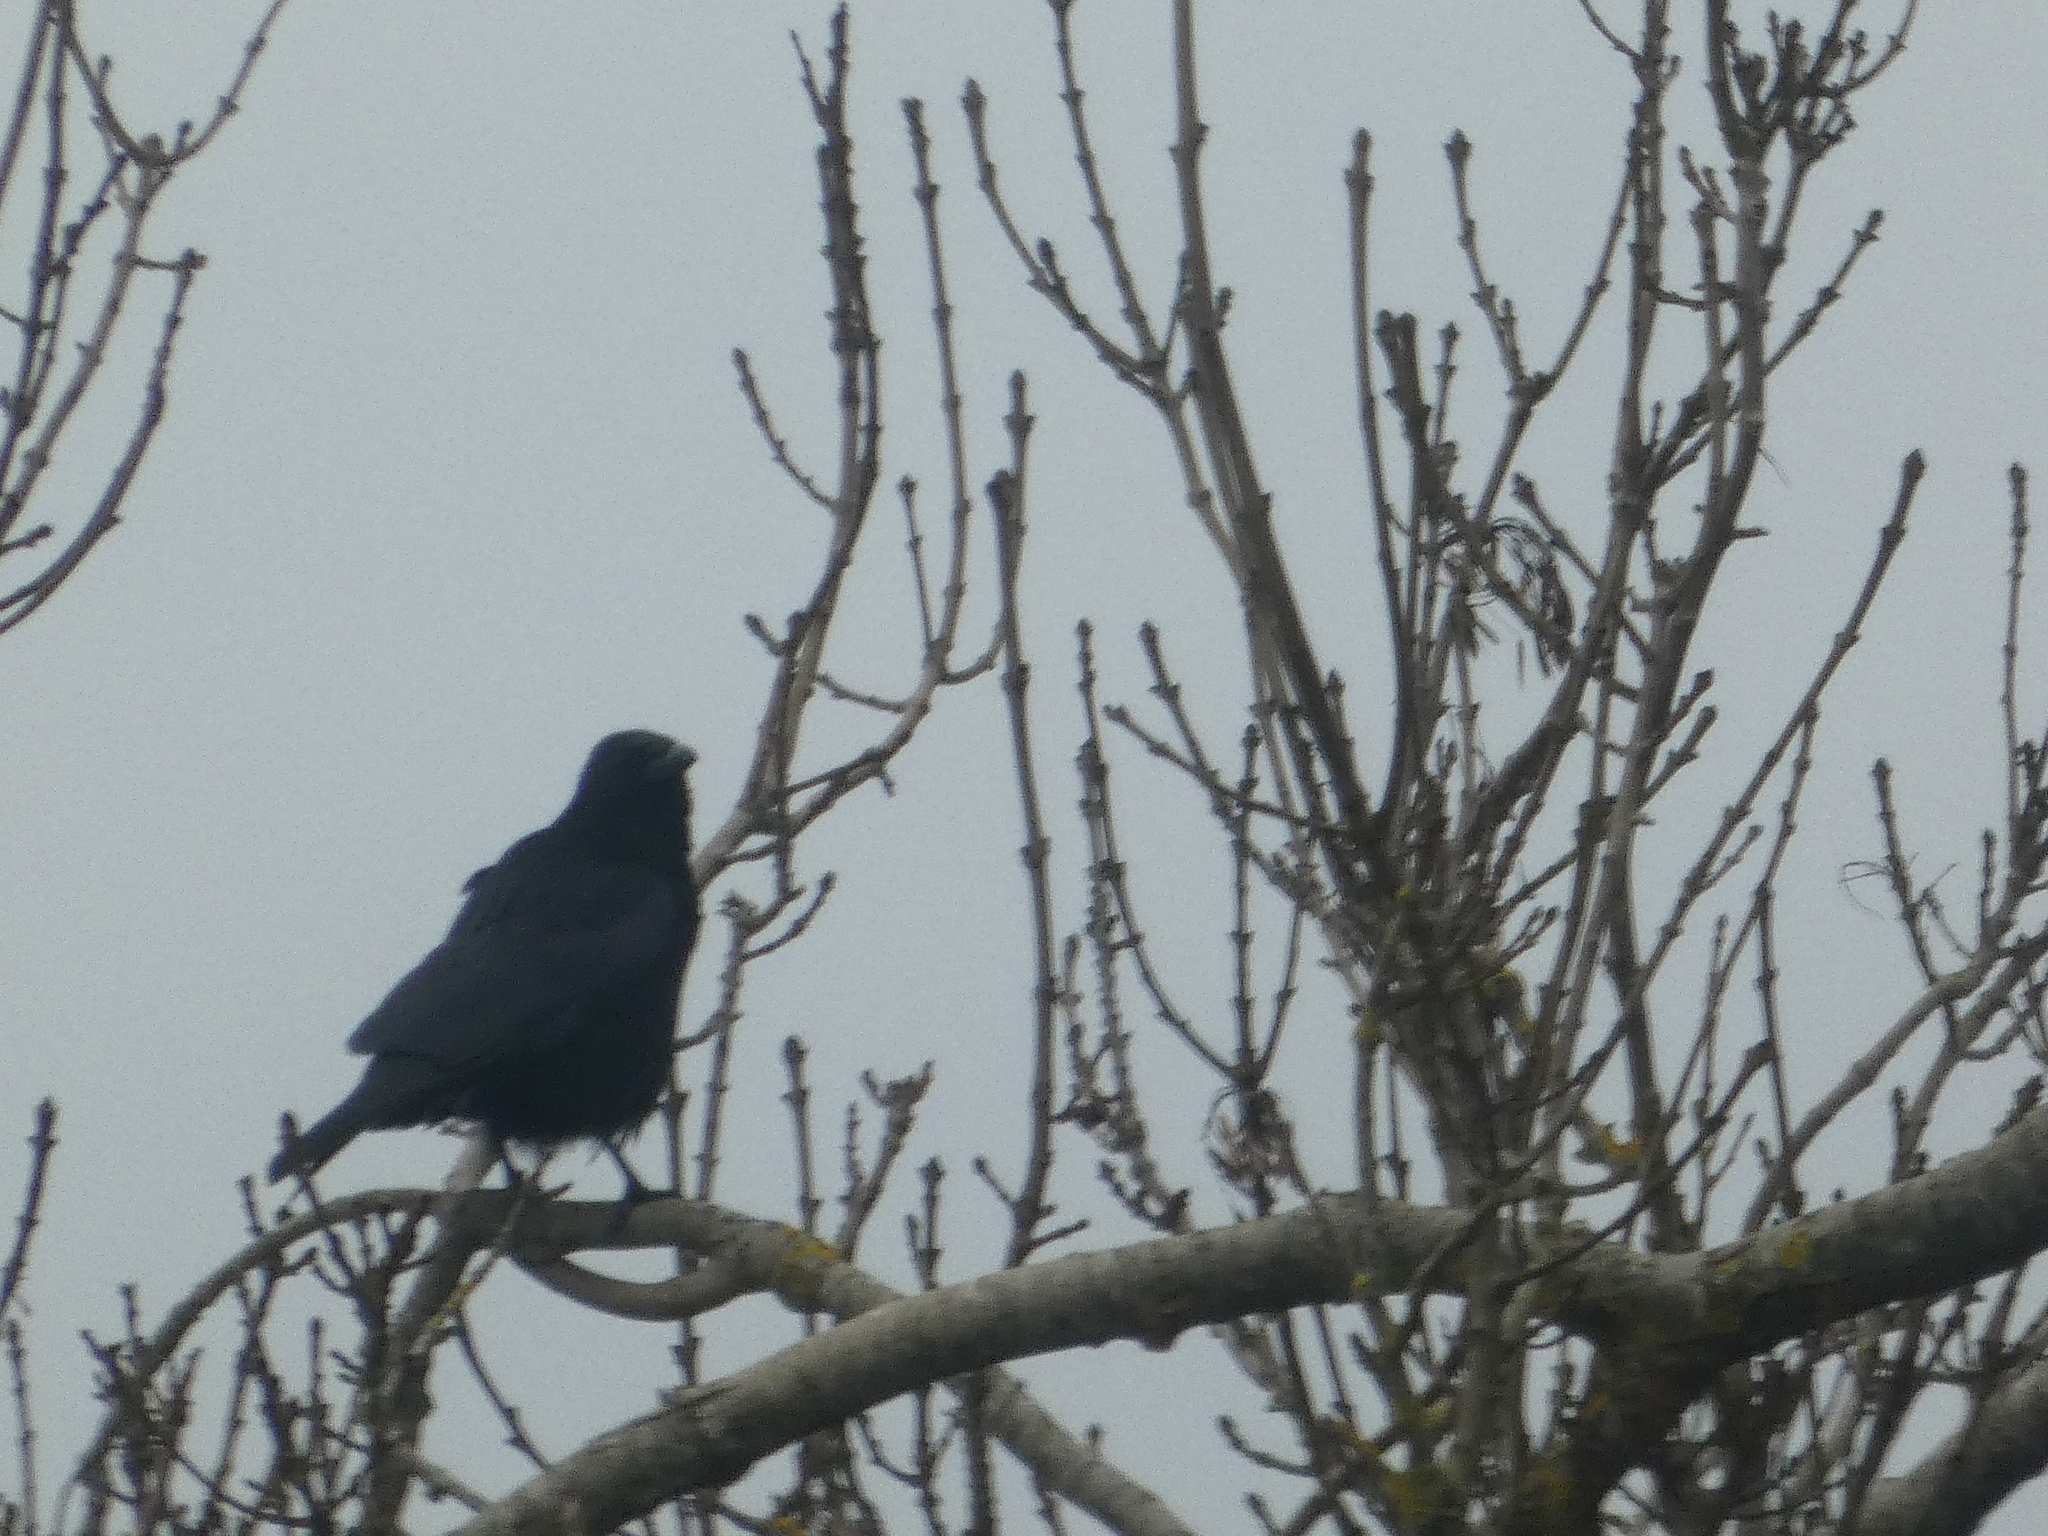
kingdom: Animalia
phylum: Chordata
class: Aves
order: Passeriformes
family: Corvidae
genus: Corvus
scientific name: Corvus corone
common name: Carrion crow
